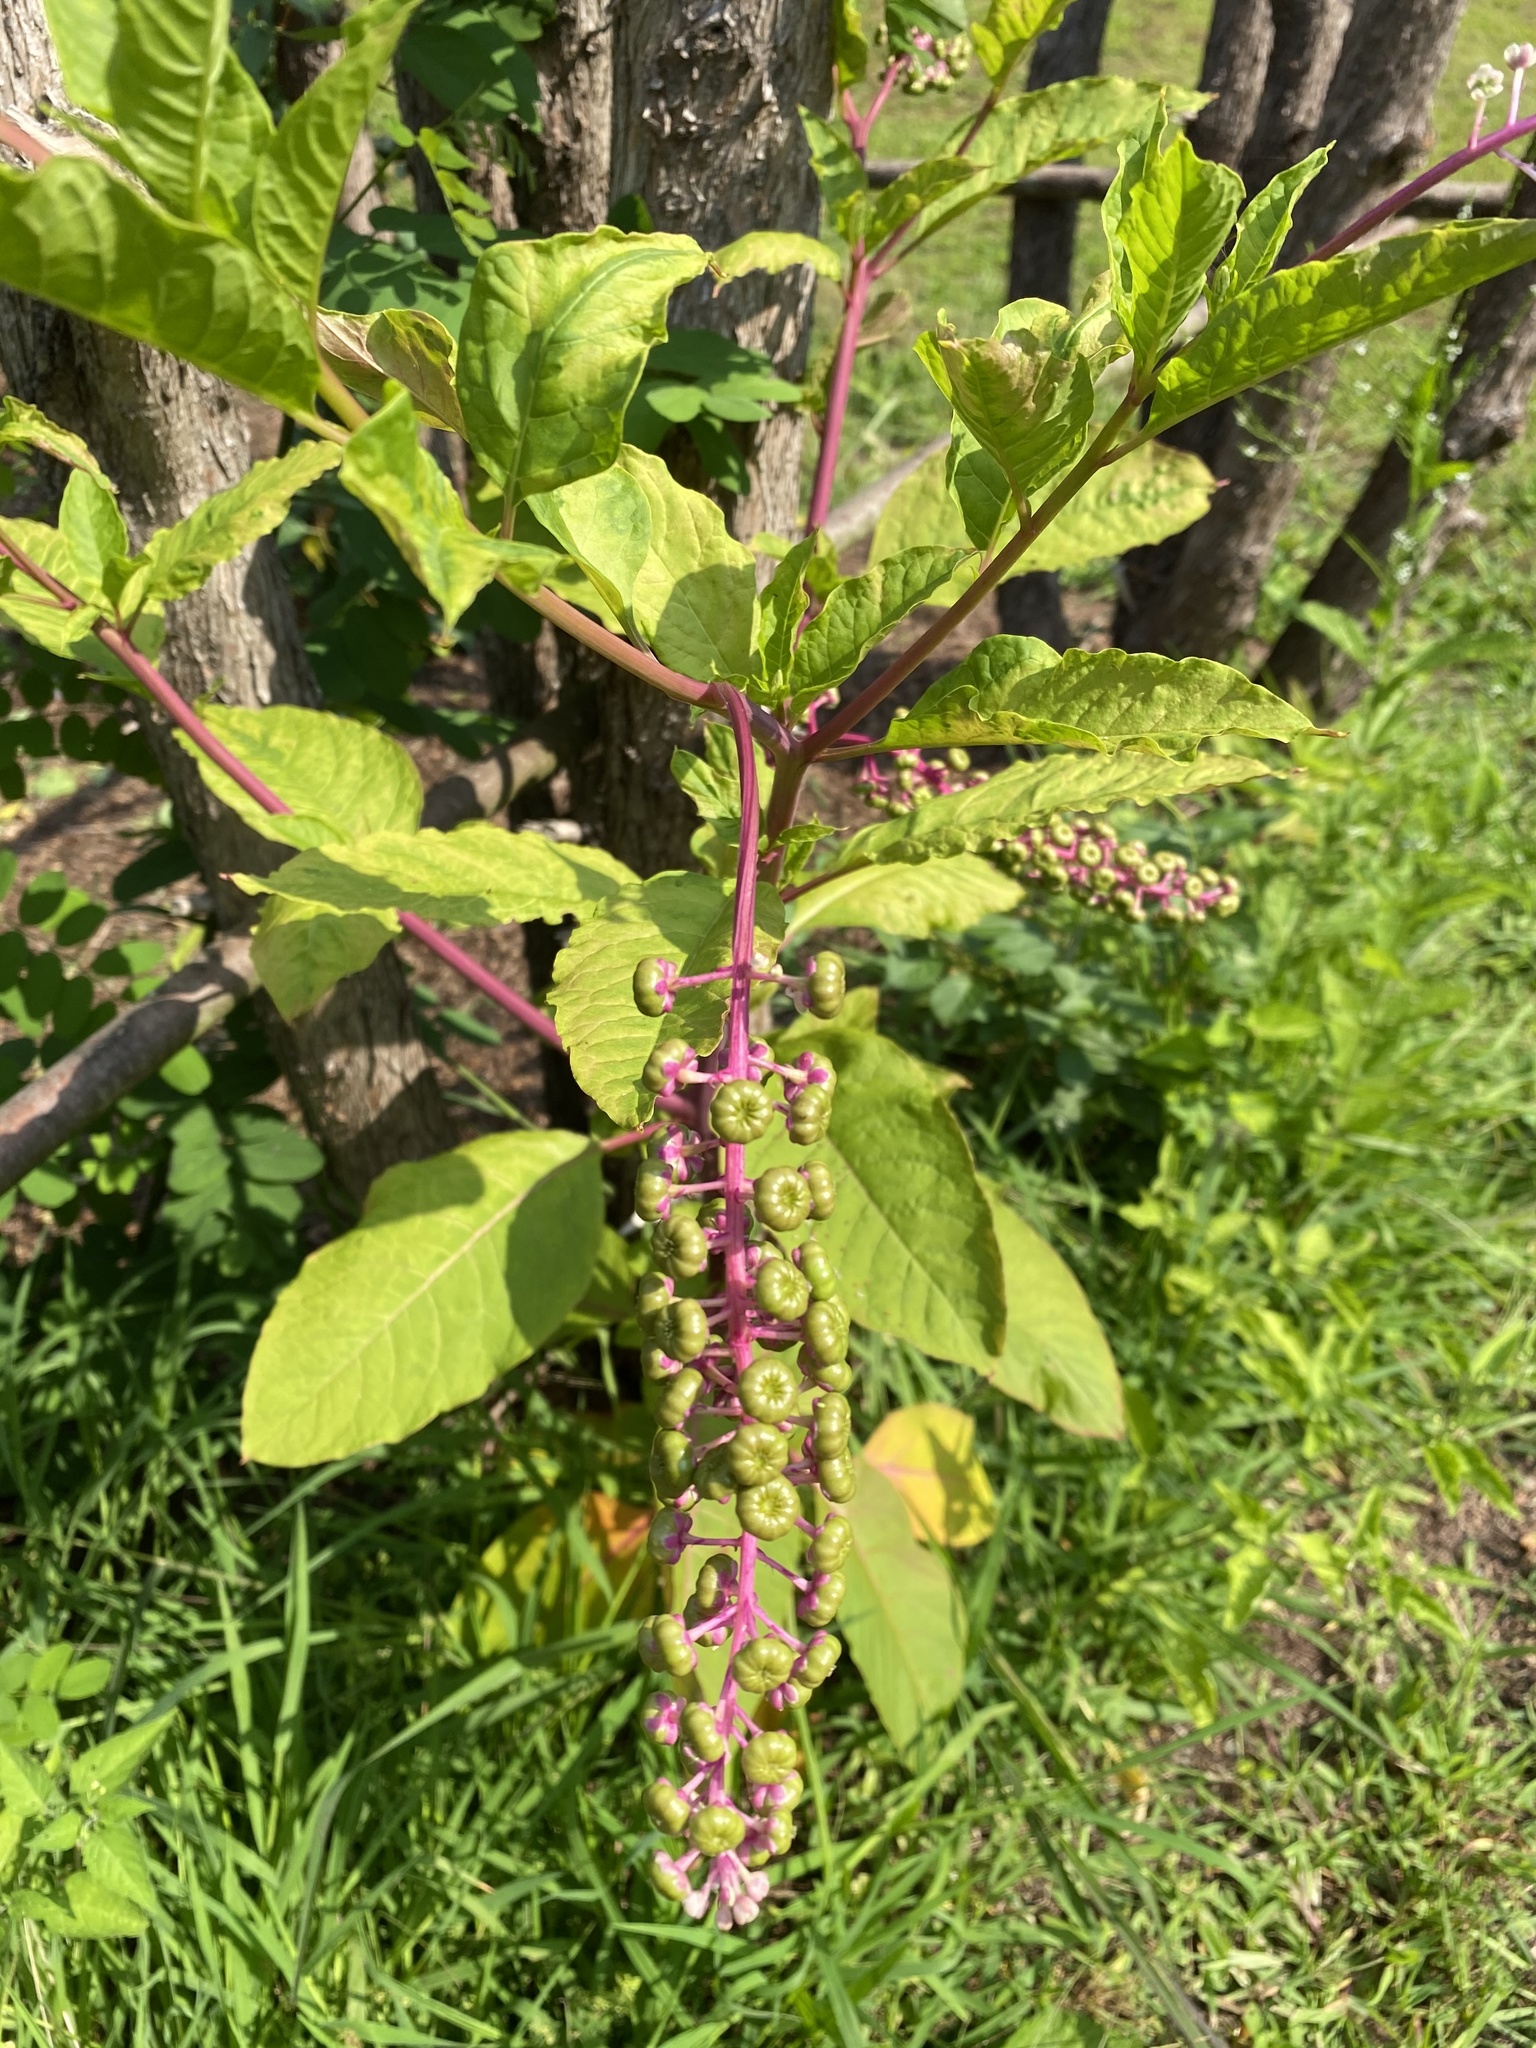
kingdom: Plantae
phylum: Tracheophyta
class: Magnoliopsida
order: Caryophyllales
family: Phytolaccaceae
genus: Phytolacca
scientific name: Phytolacca americana
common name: American pokeweed
